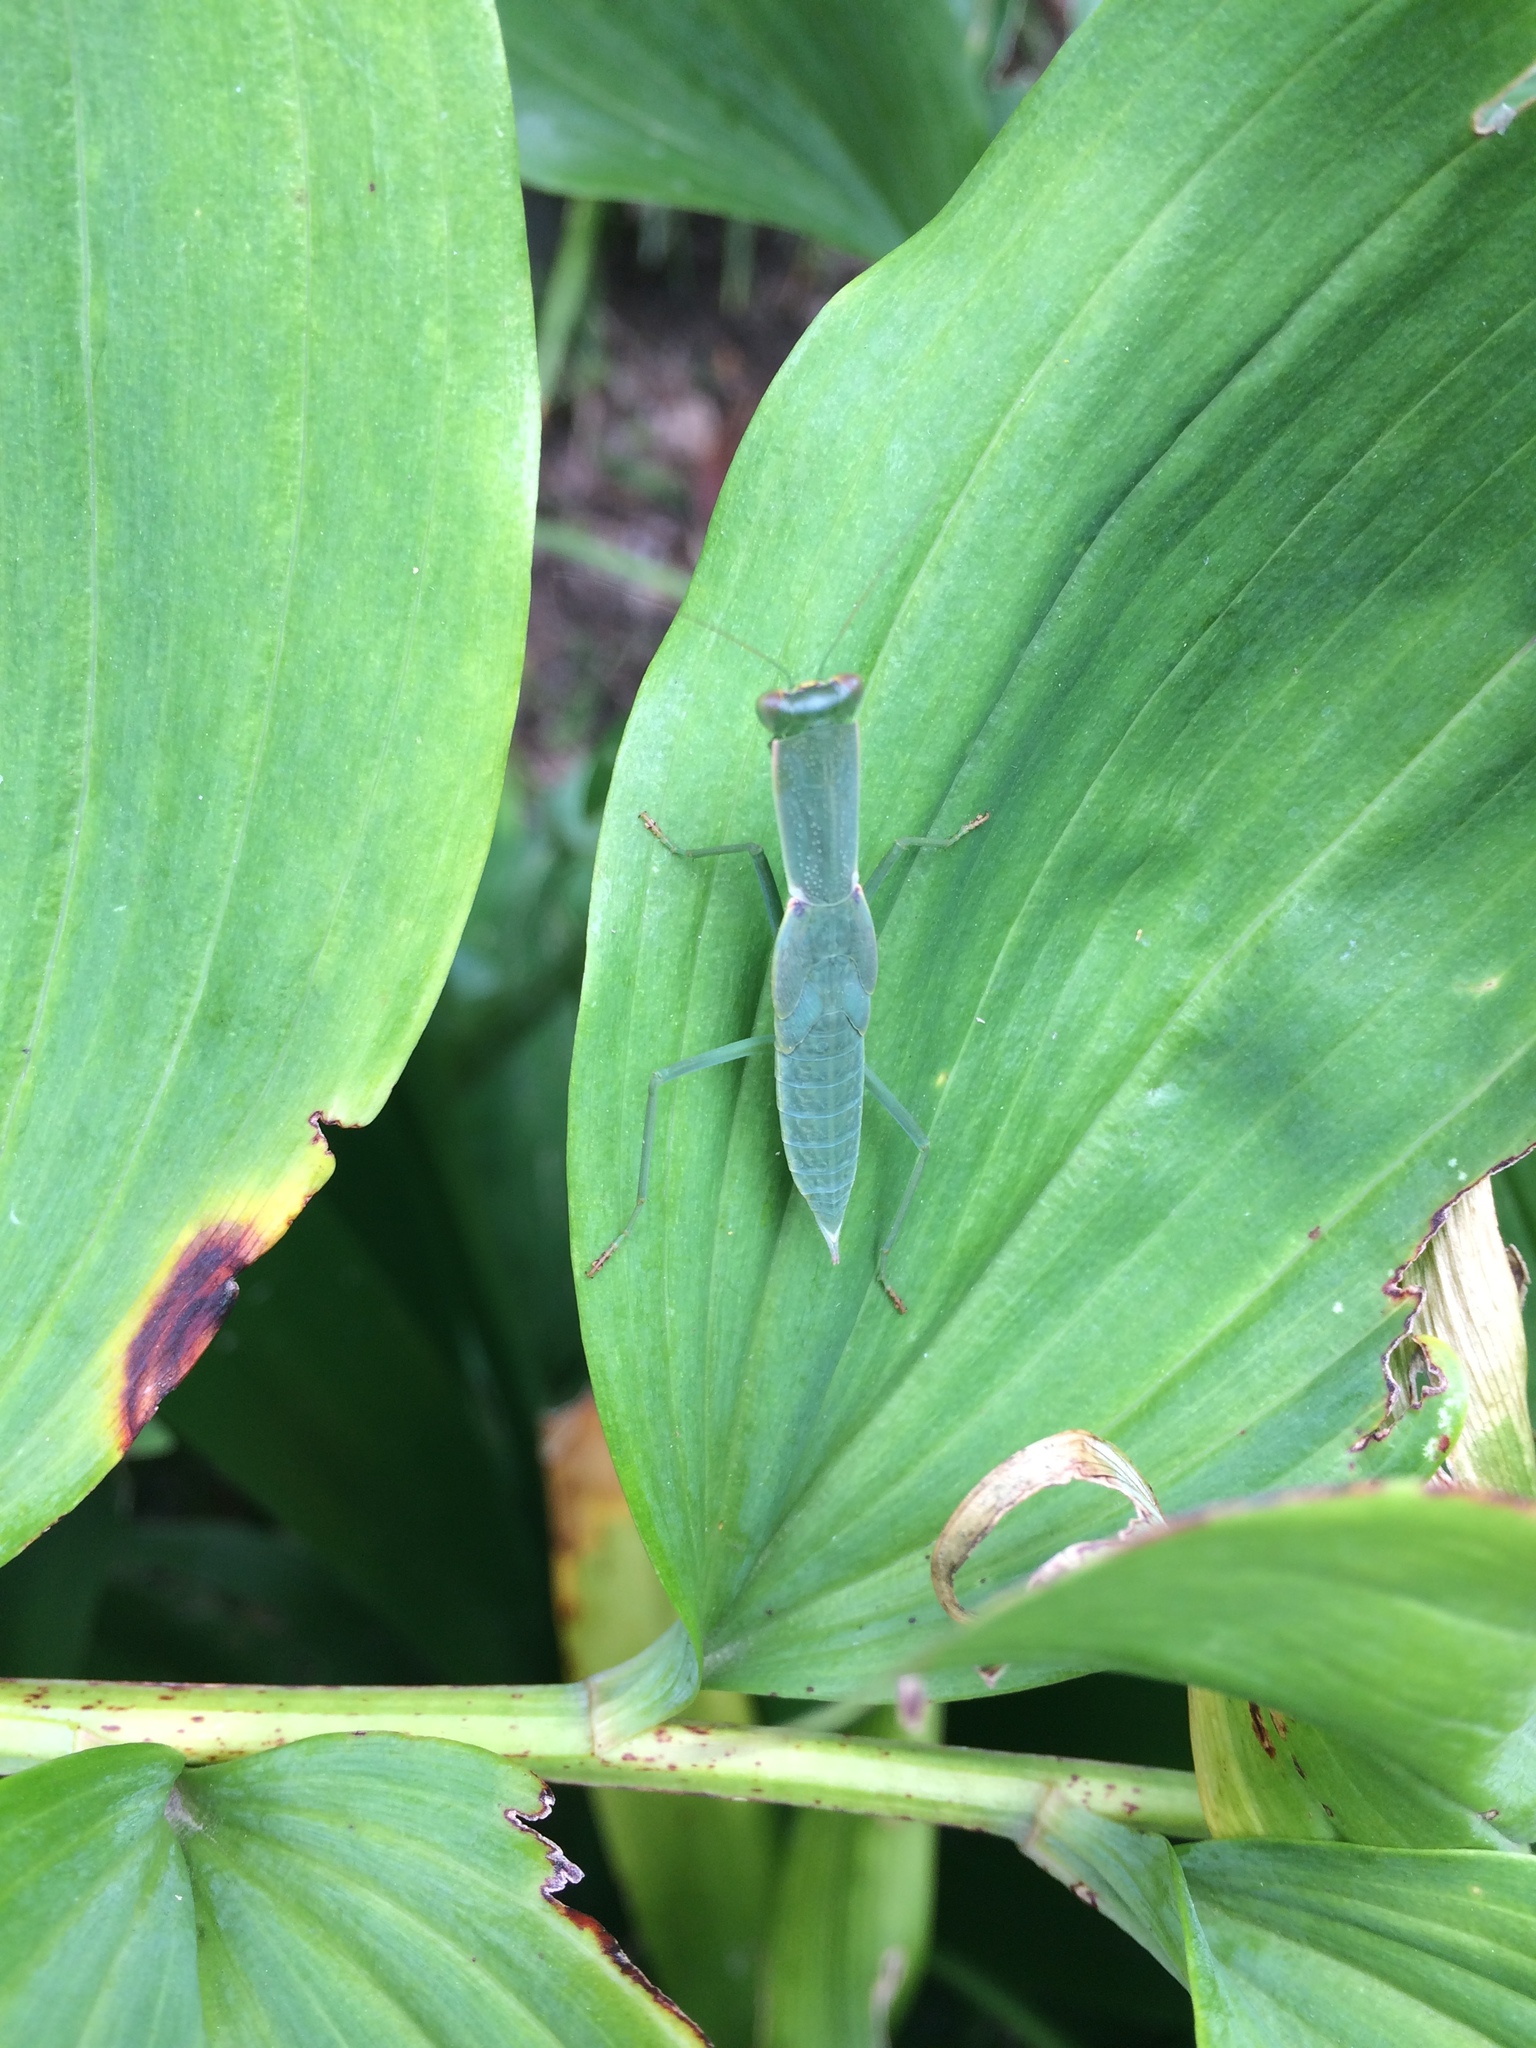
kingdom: Animalia
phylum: Arthropoda
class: Insecta
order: Mantodea
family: Mantidae
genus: Orthodera
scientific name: Orthodera novaezealandiae
